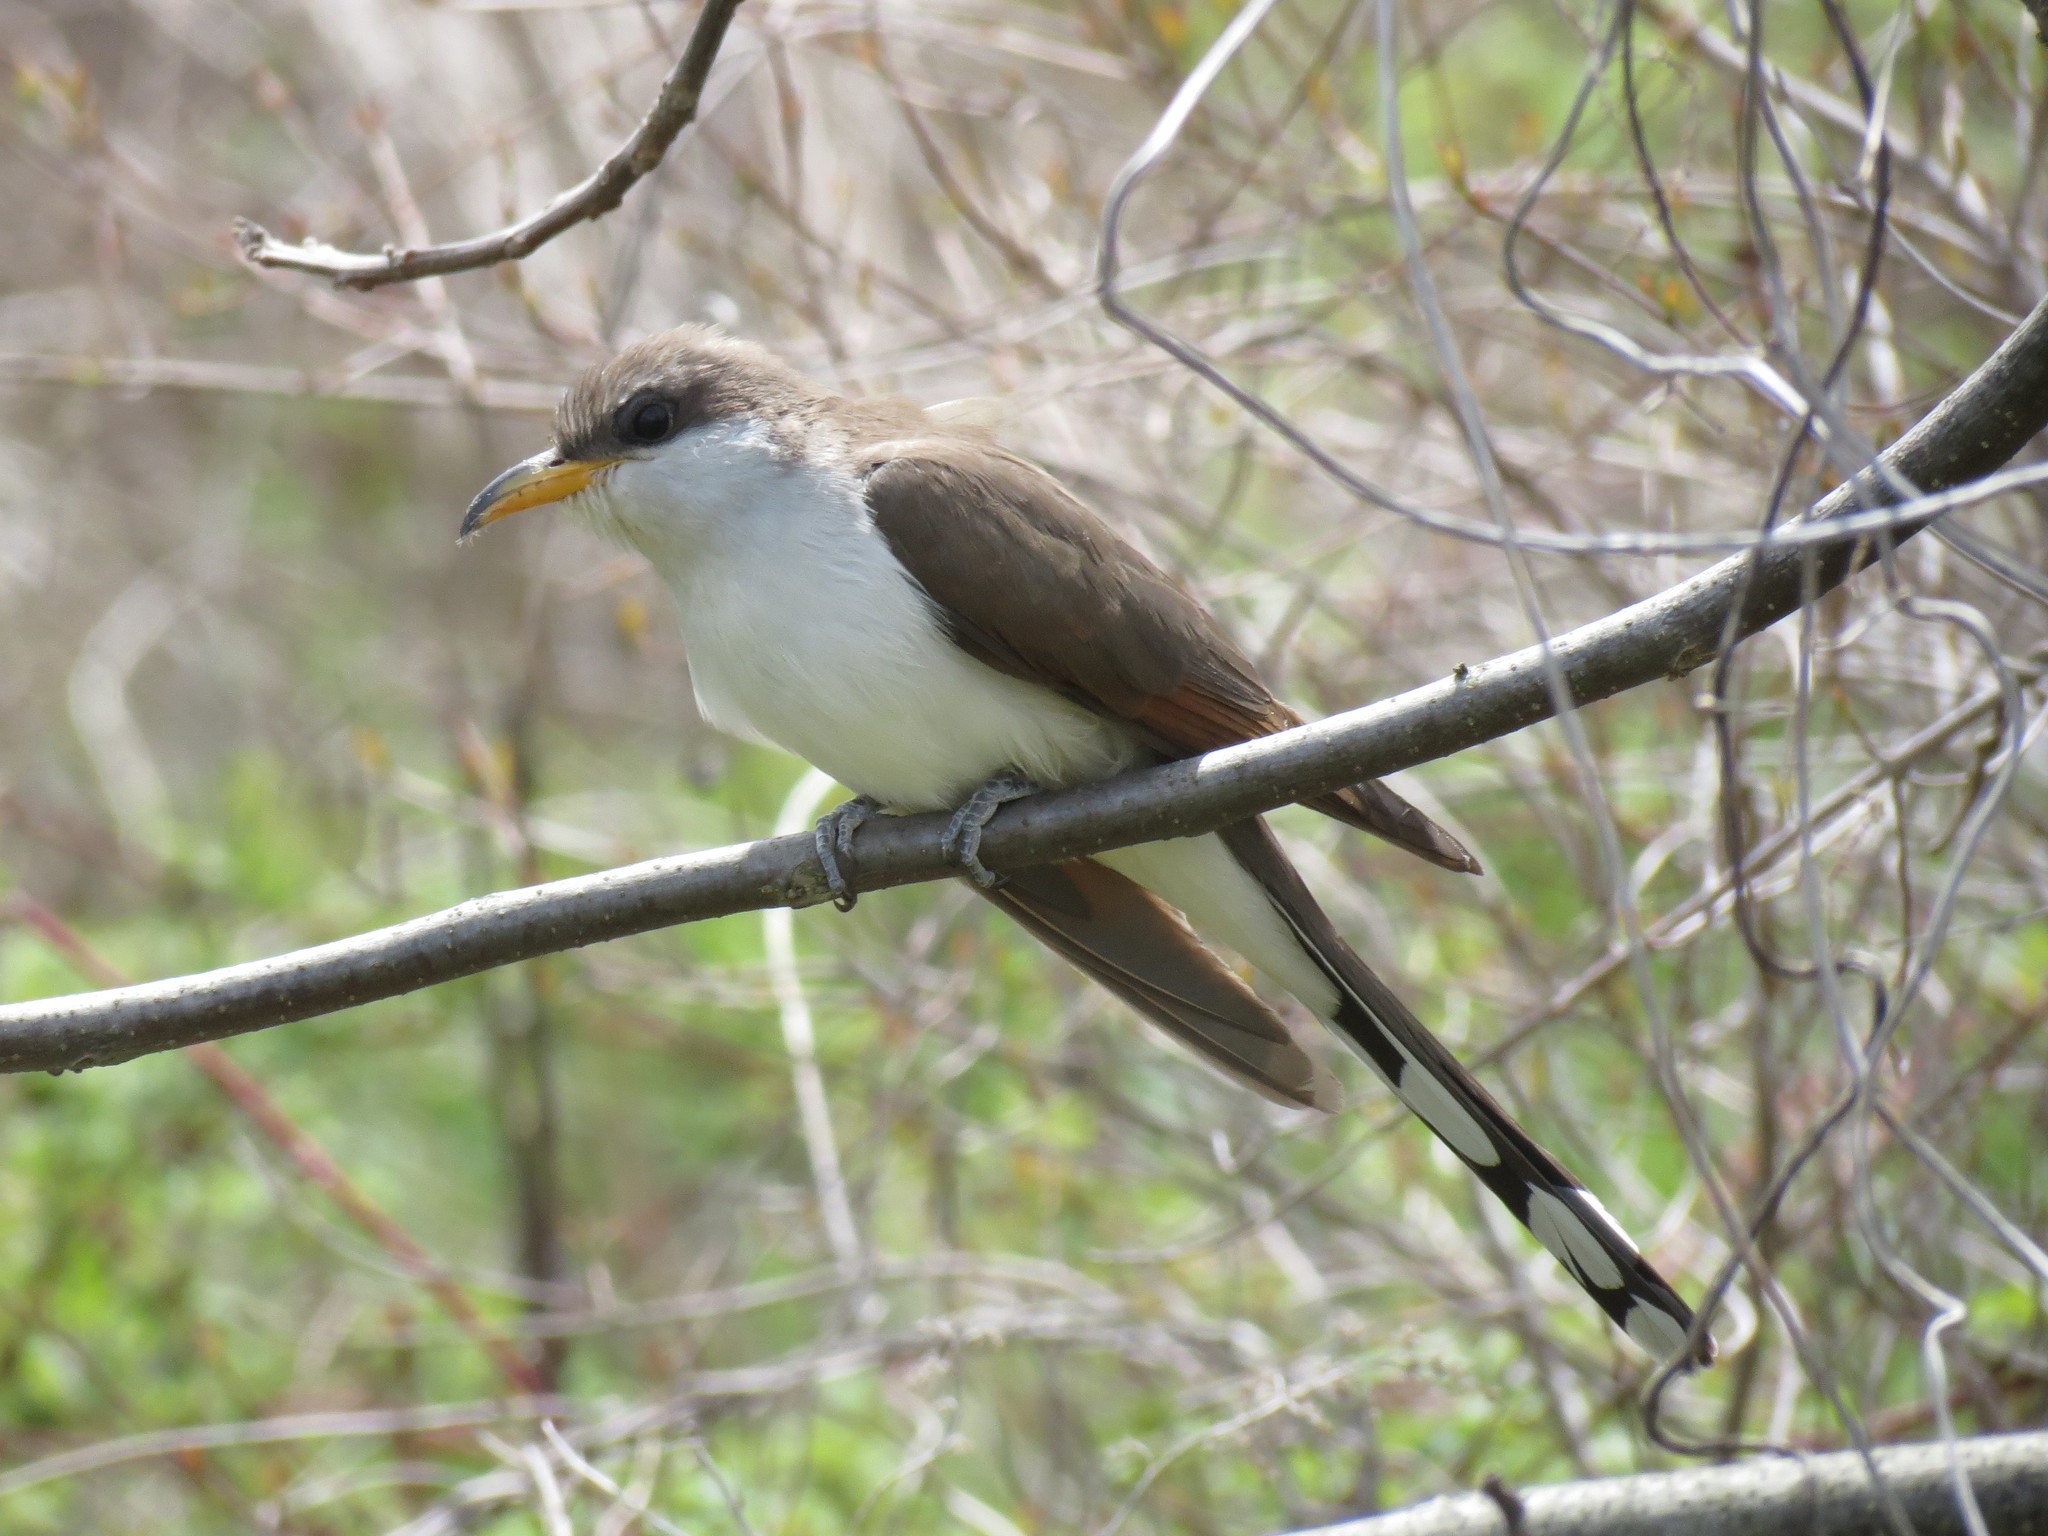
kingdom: Animalia
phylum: Chordata
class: Aves
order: Cuculiformes
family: Cuculidae
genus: Coccyzus
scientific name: Coccyzus americanus
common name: Yellow-billed cuckoo
